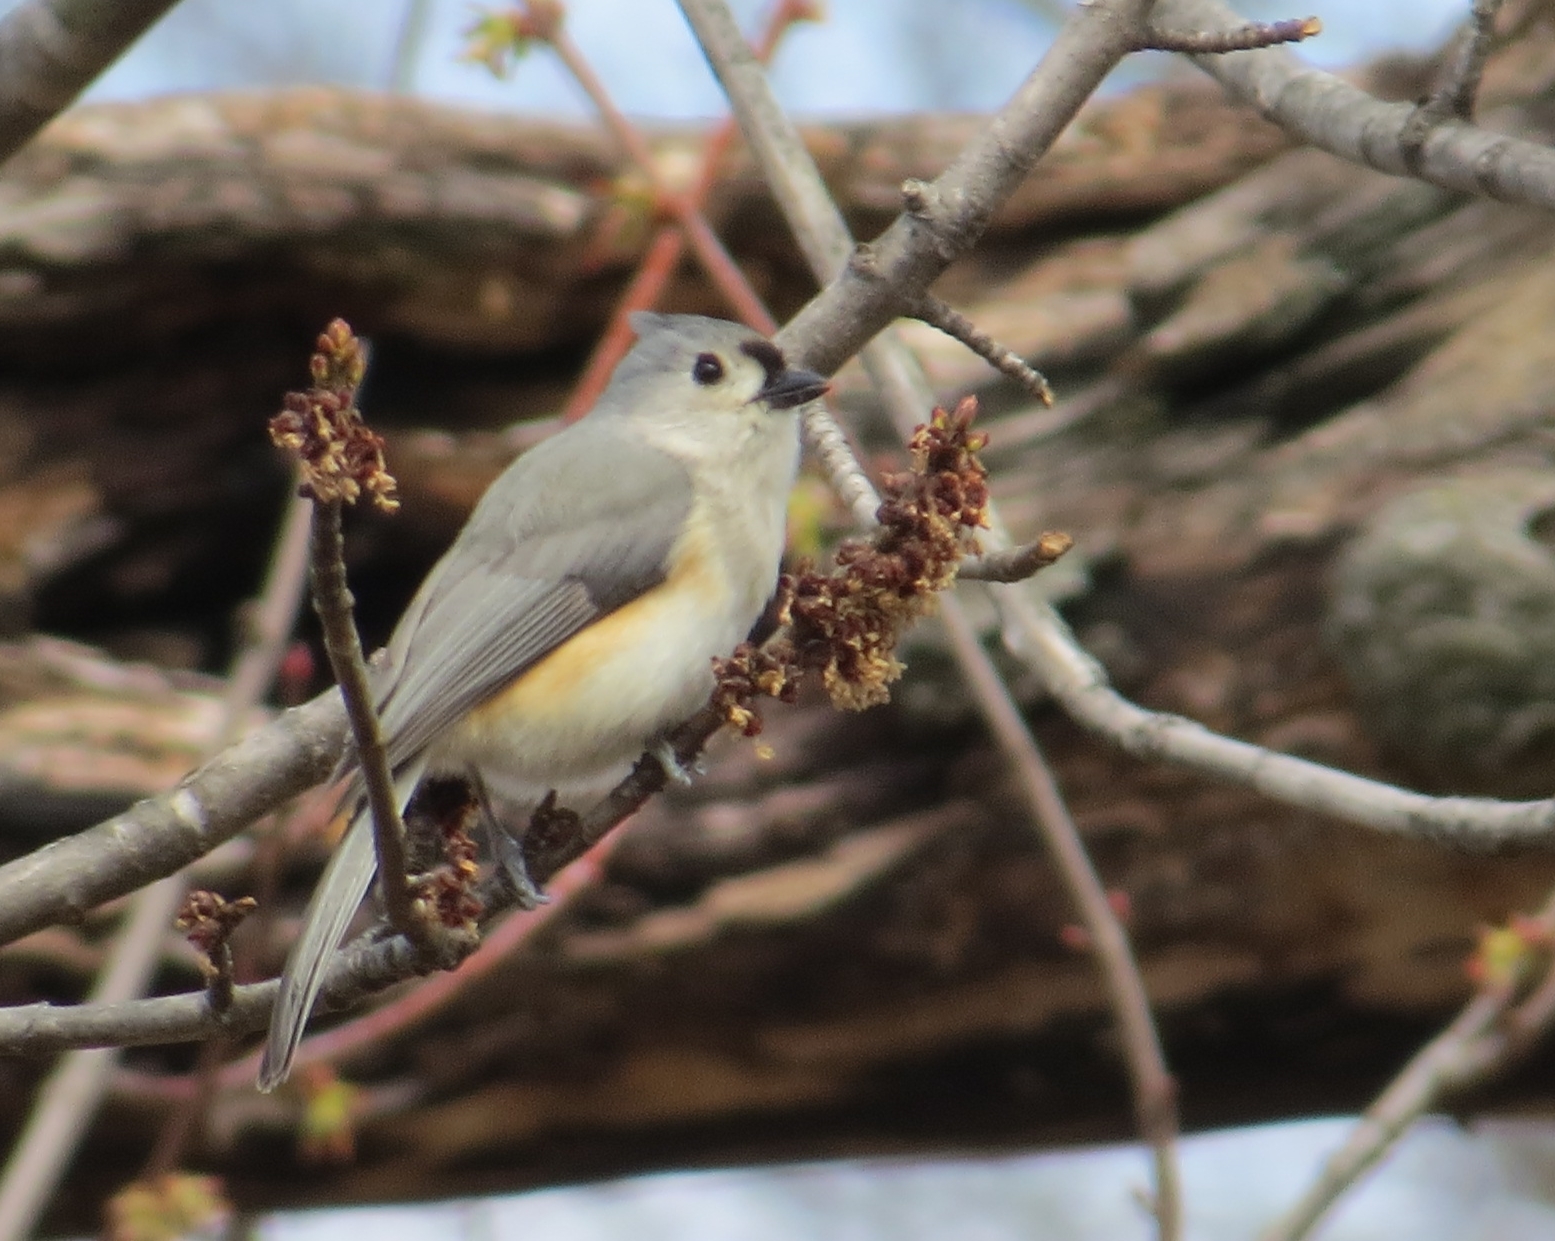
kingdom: Animalia
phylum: Chordata
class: Aves
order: Passeriformes
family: Paridae
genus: Baeolophus
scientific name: Baeolophus bicolor
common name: Tufted titmouse
